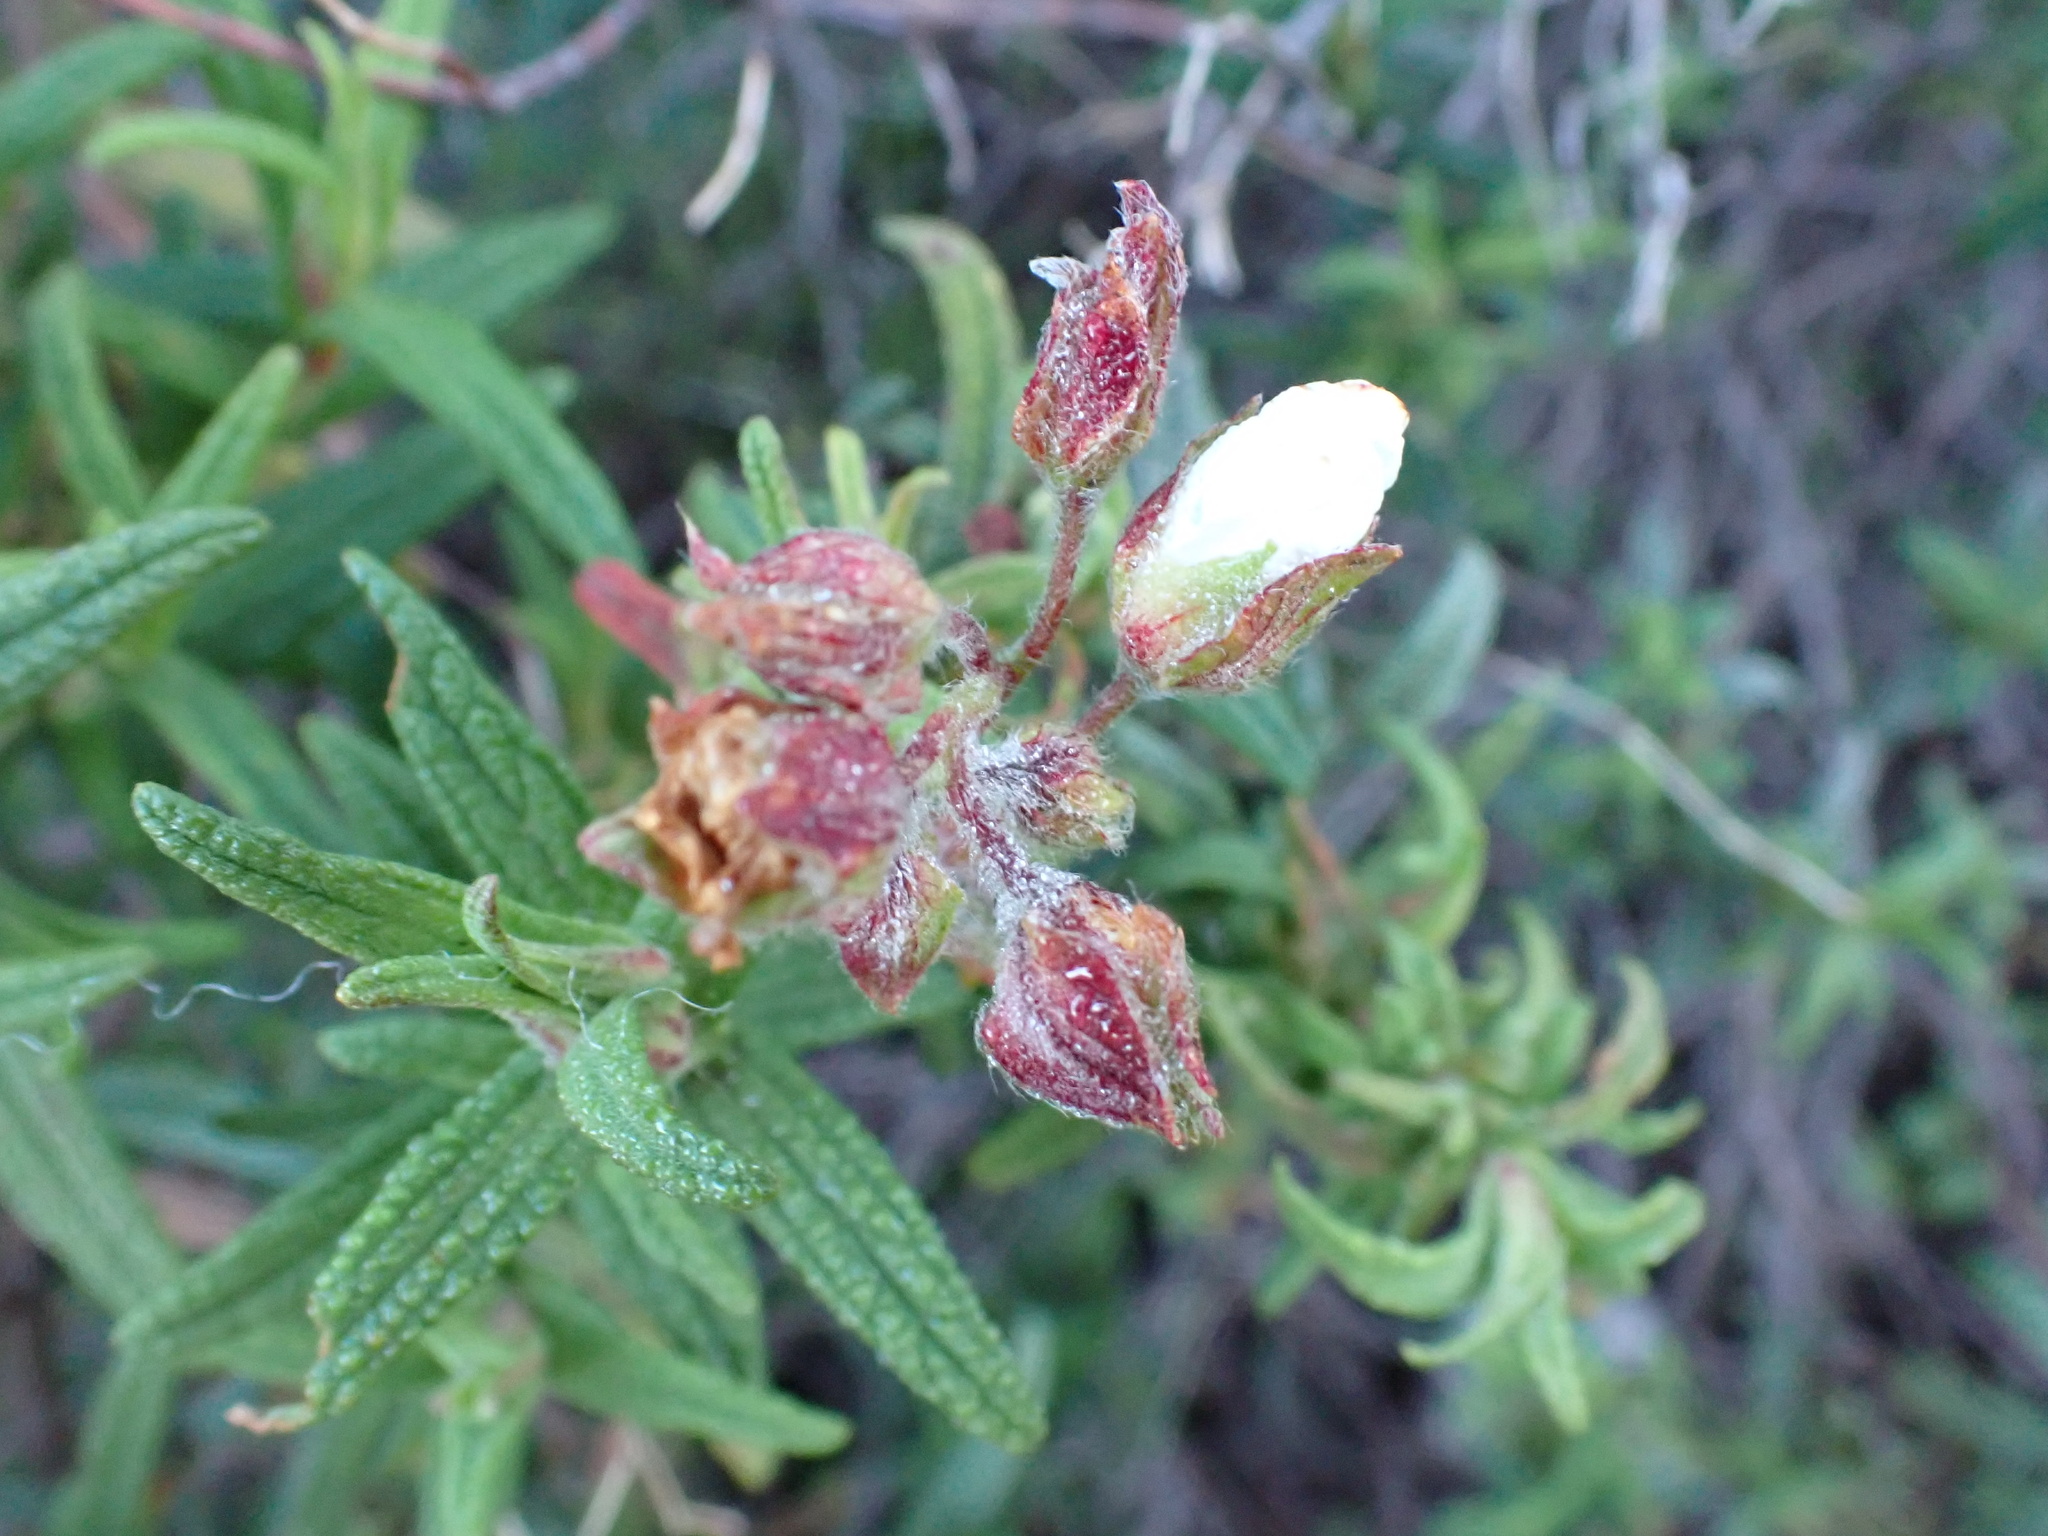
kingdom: Plantae
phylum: Tracheophyta
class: Magnoliopsida
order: Malvales
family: Cistaceae
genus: Cistus
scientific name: Cistus monspeliensis
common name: Montpelier cistus
